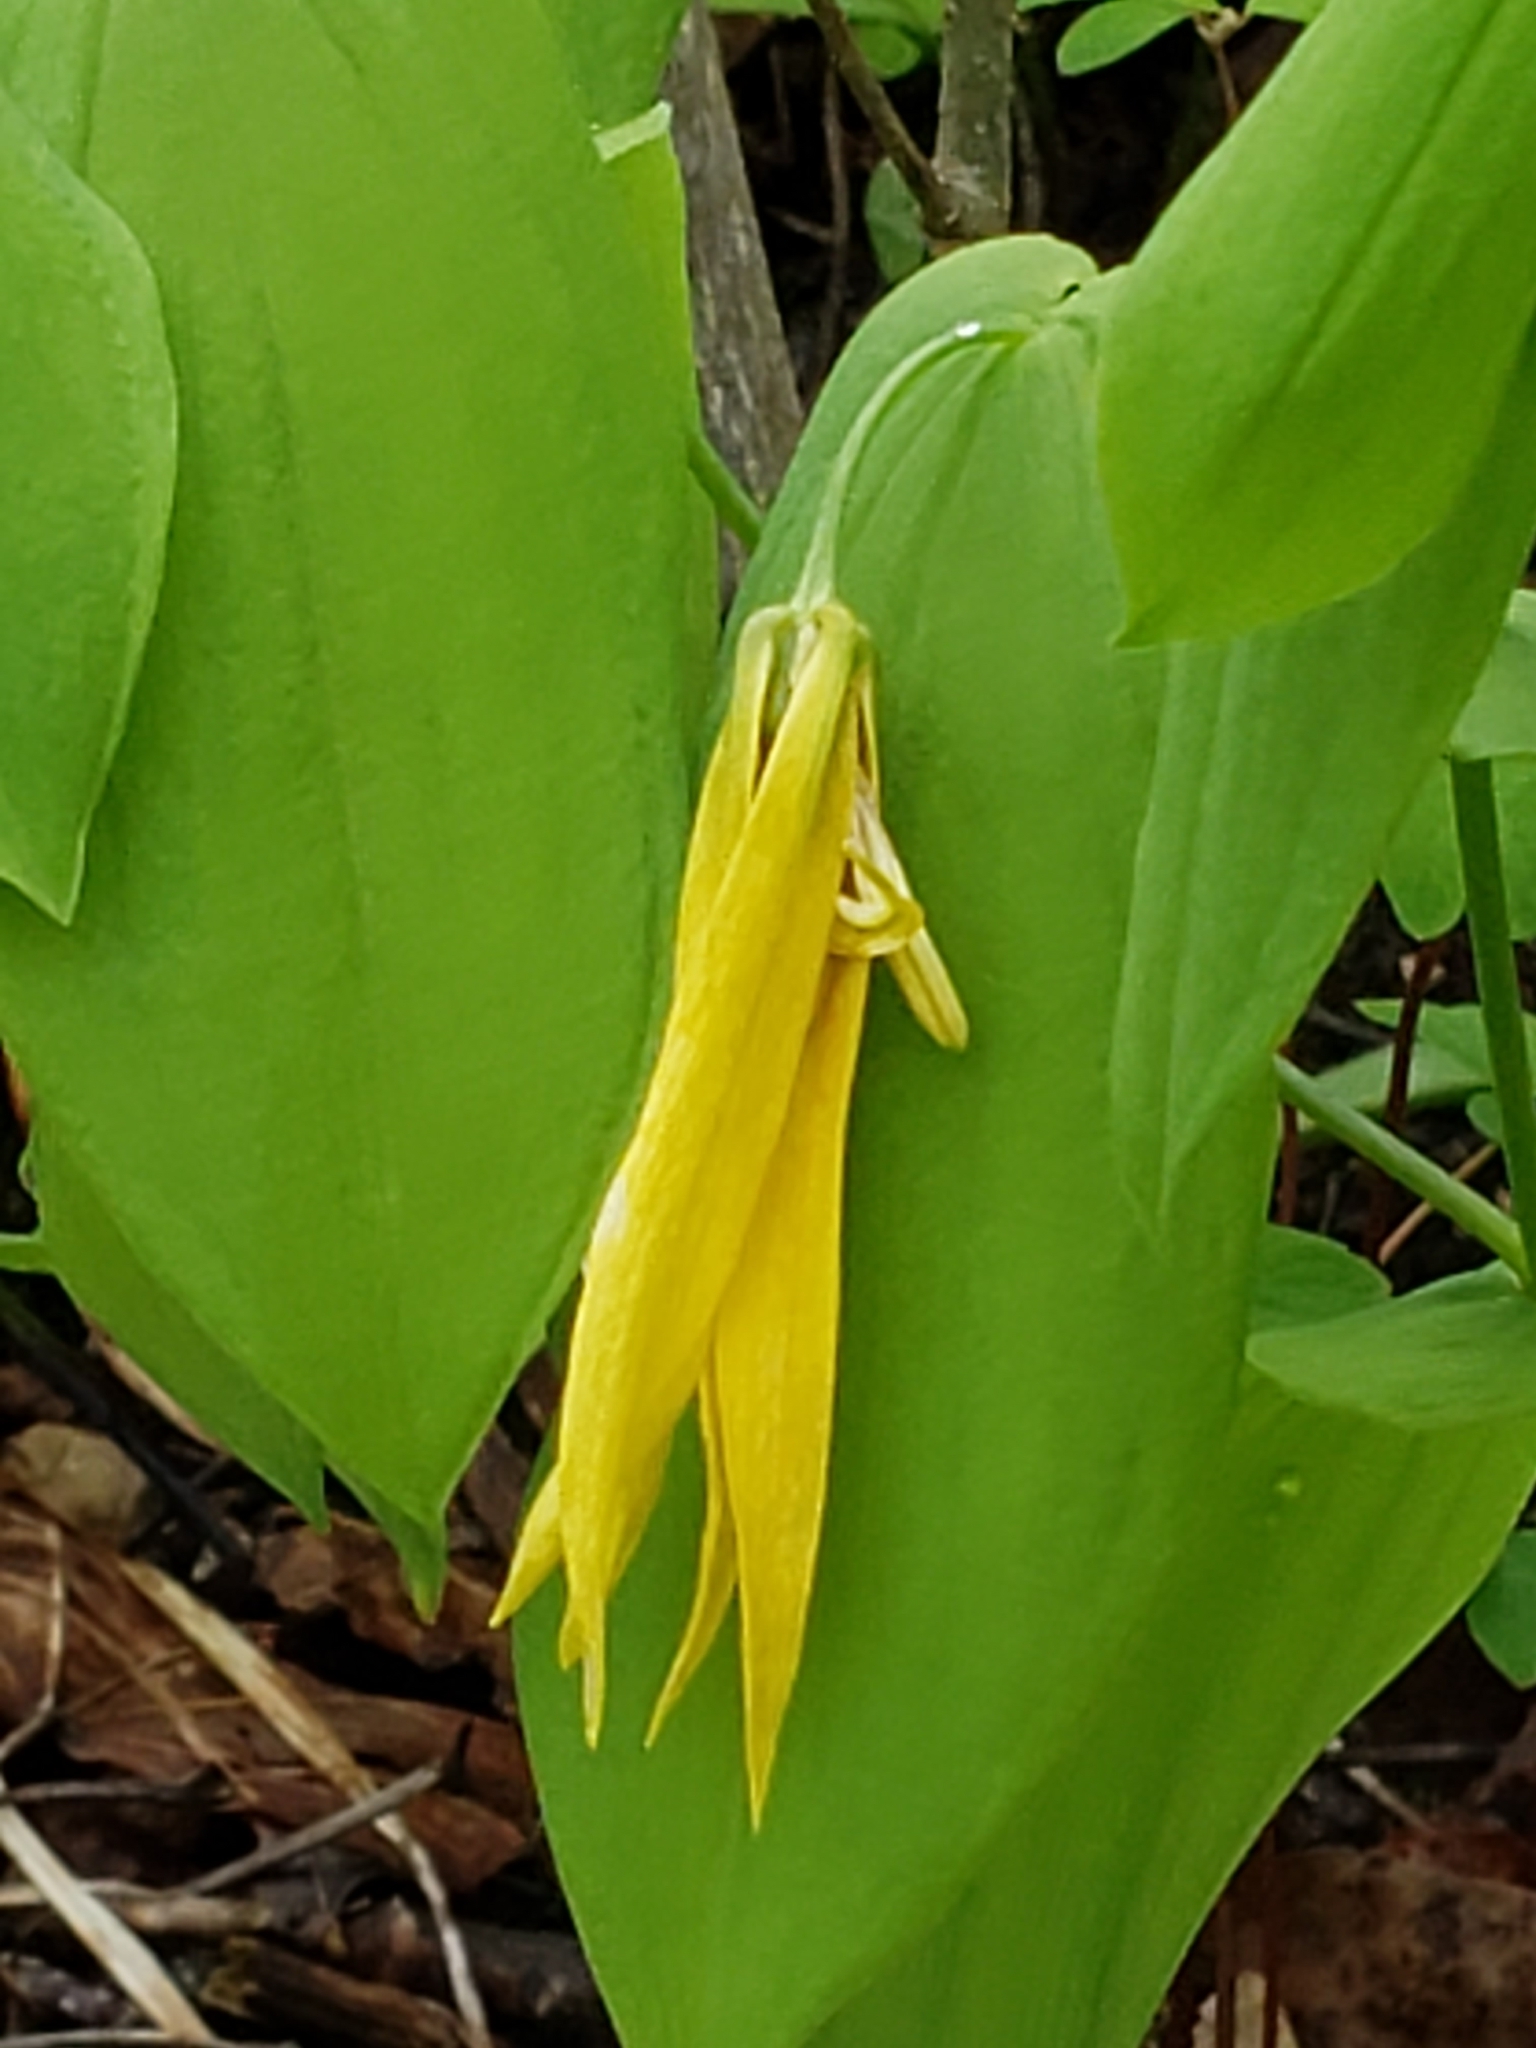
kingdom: Plantae
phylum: Tracheophyta
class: Liliopsida
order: Liliales
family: Colchicaceae
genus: Uvularia
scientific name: Uvularia grandiflora
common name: Bellwort
